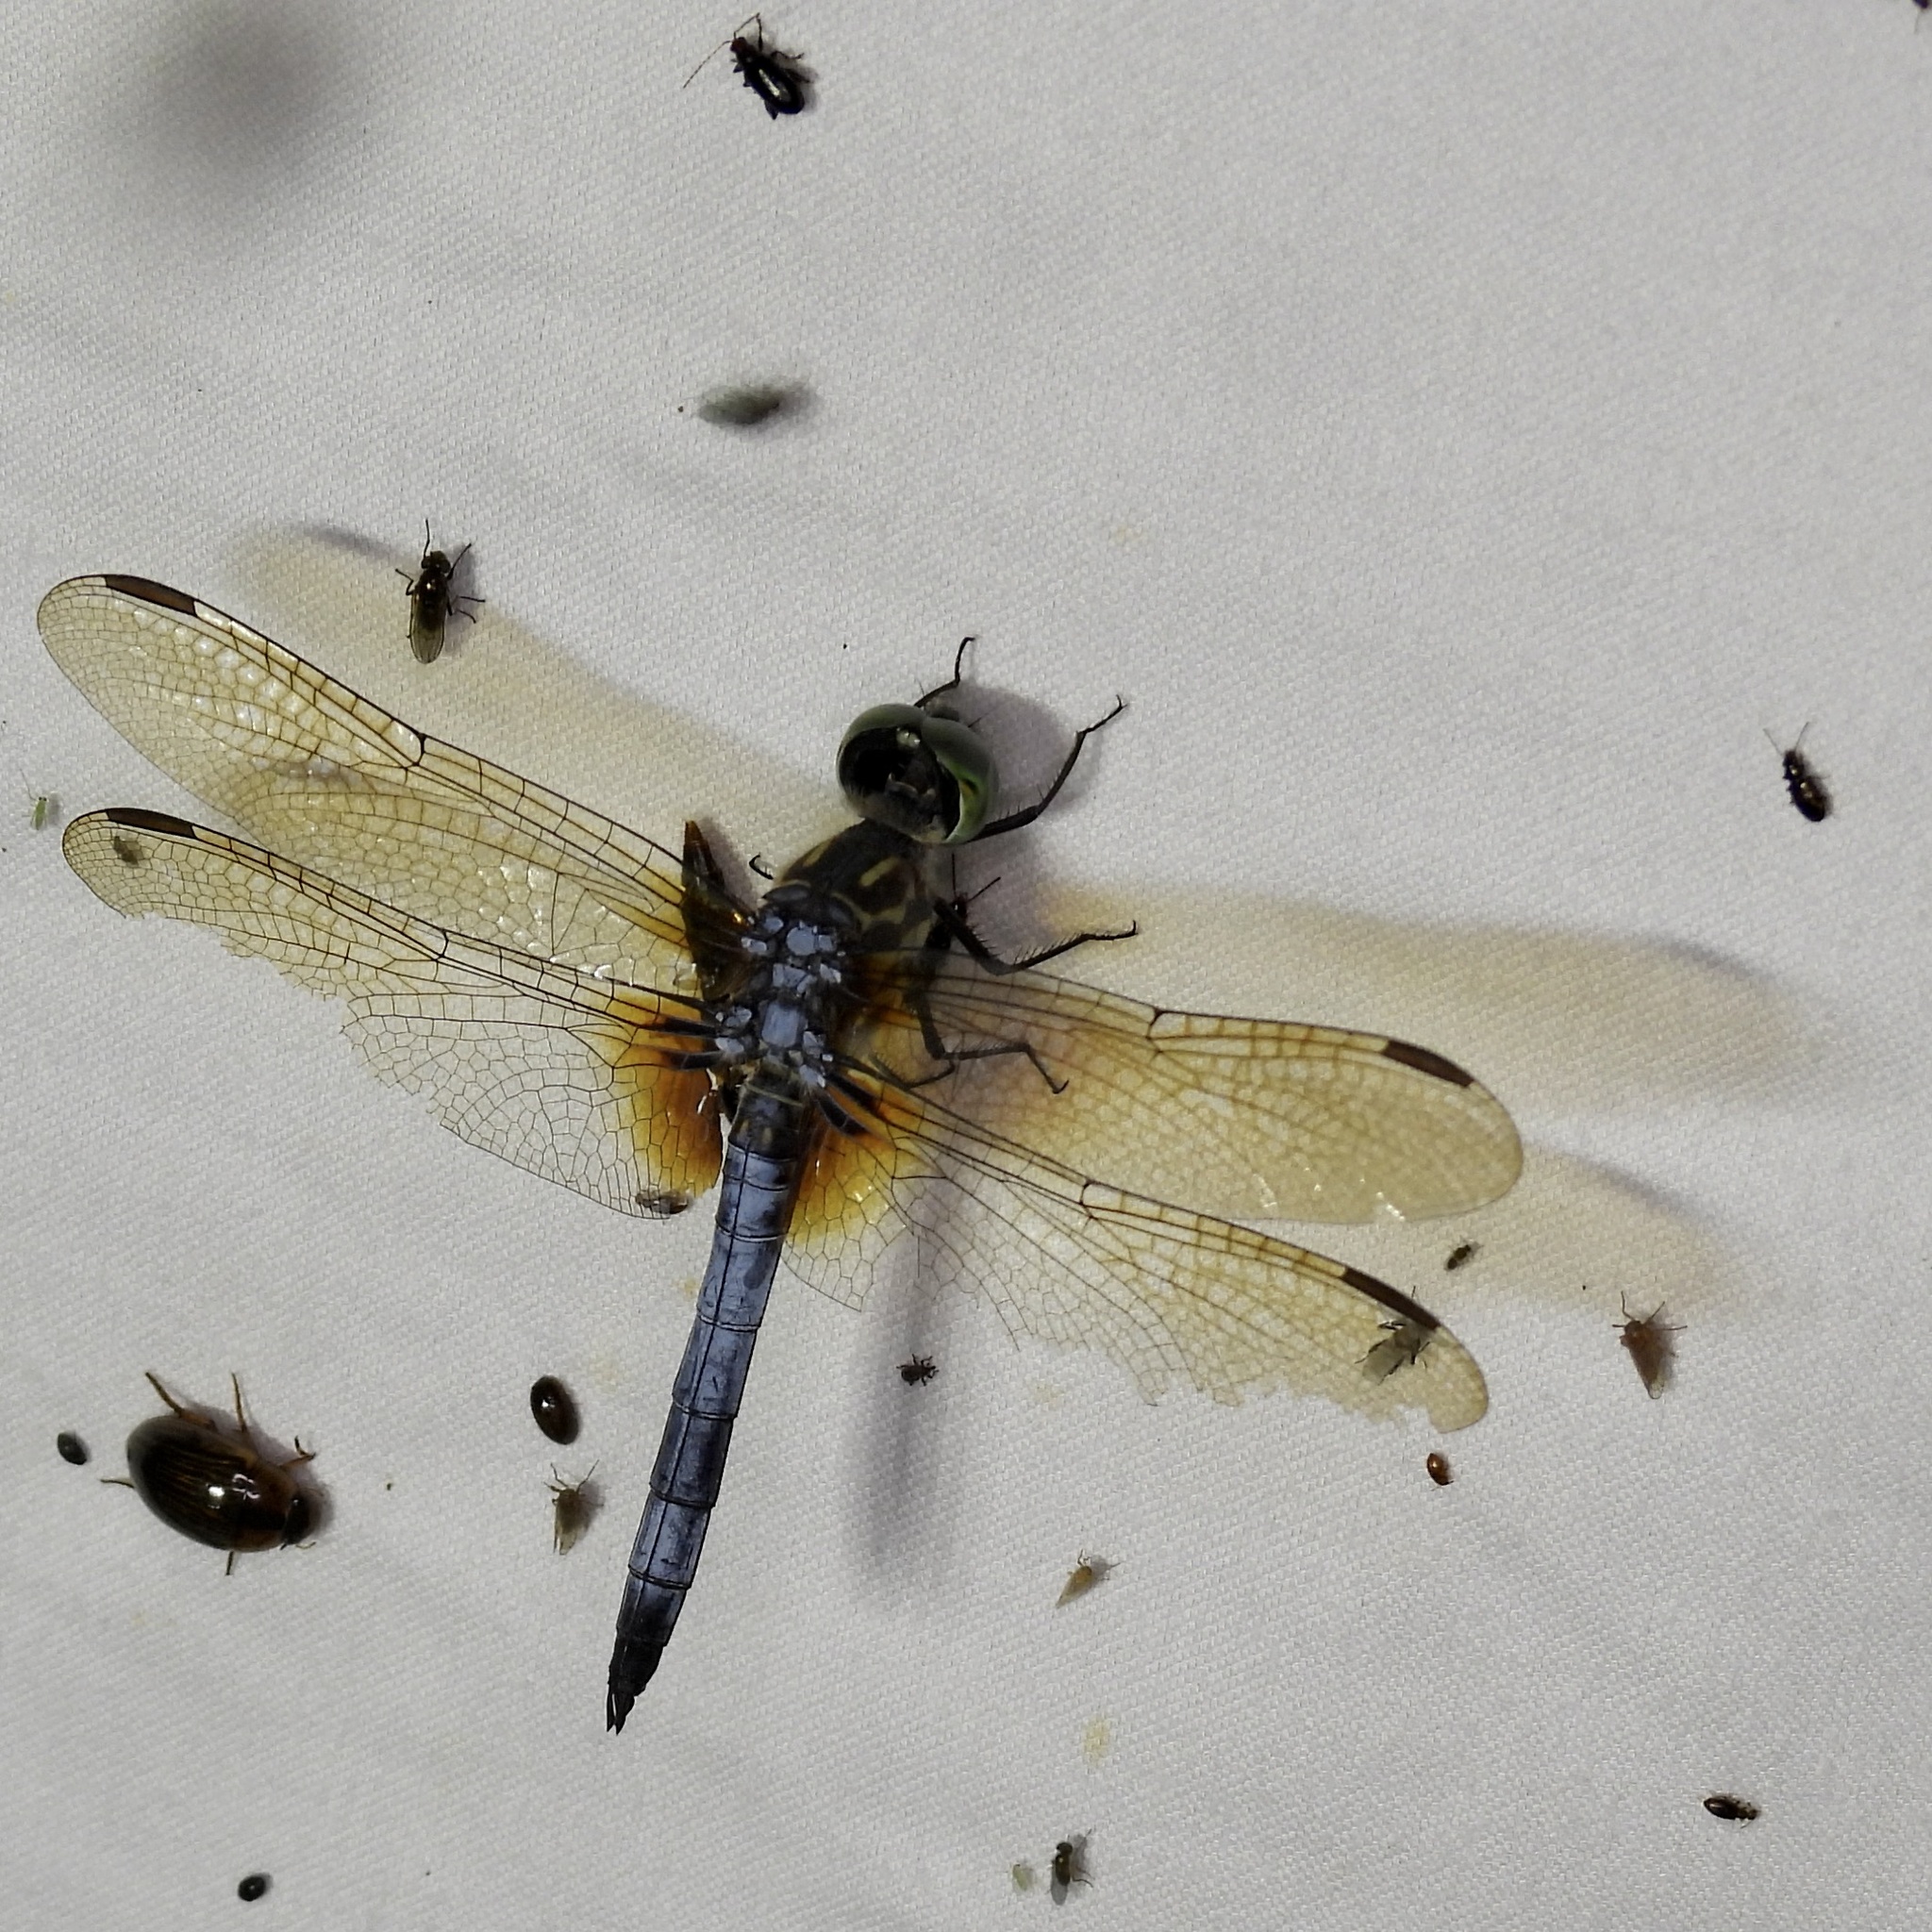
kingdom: Animalia
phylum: Arthropoda
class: Insecta
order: Odonata
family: Libellulidae
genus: Pachydiplax
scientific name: Pachydiplax longipennis
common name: Blue dasher
